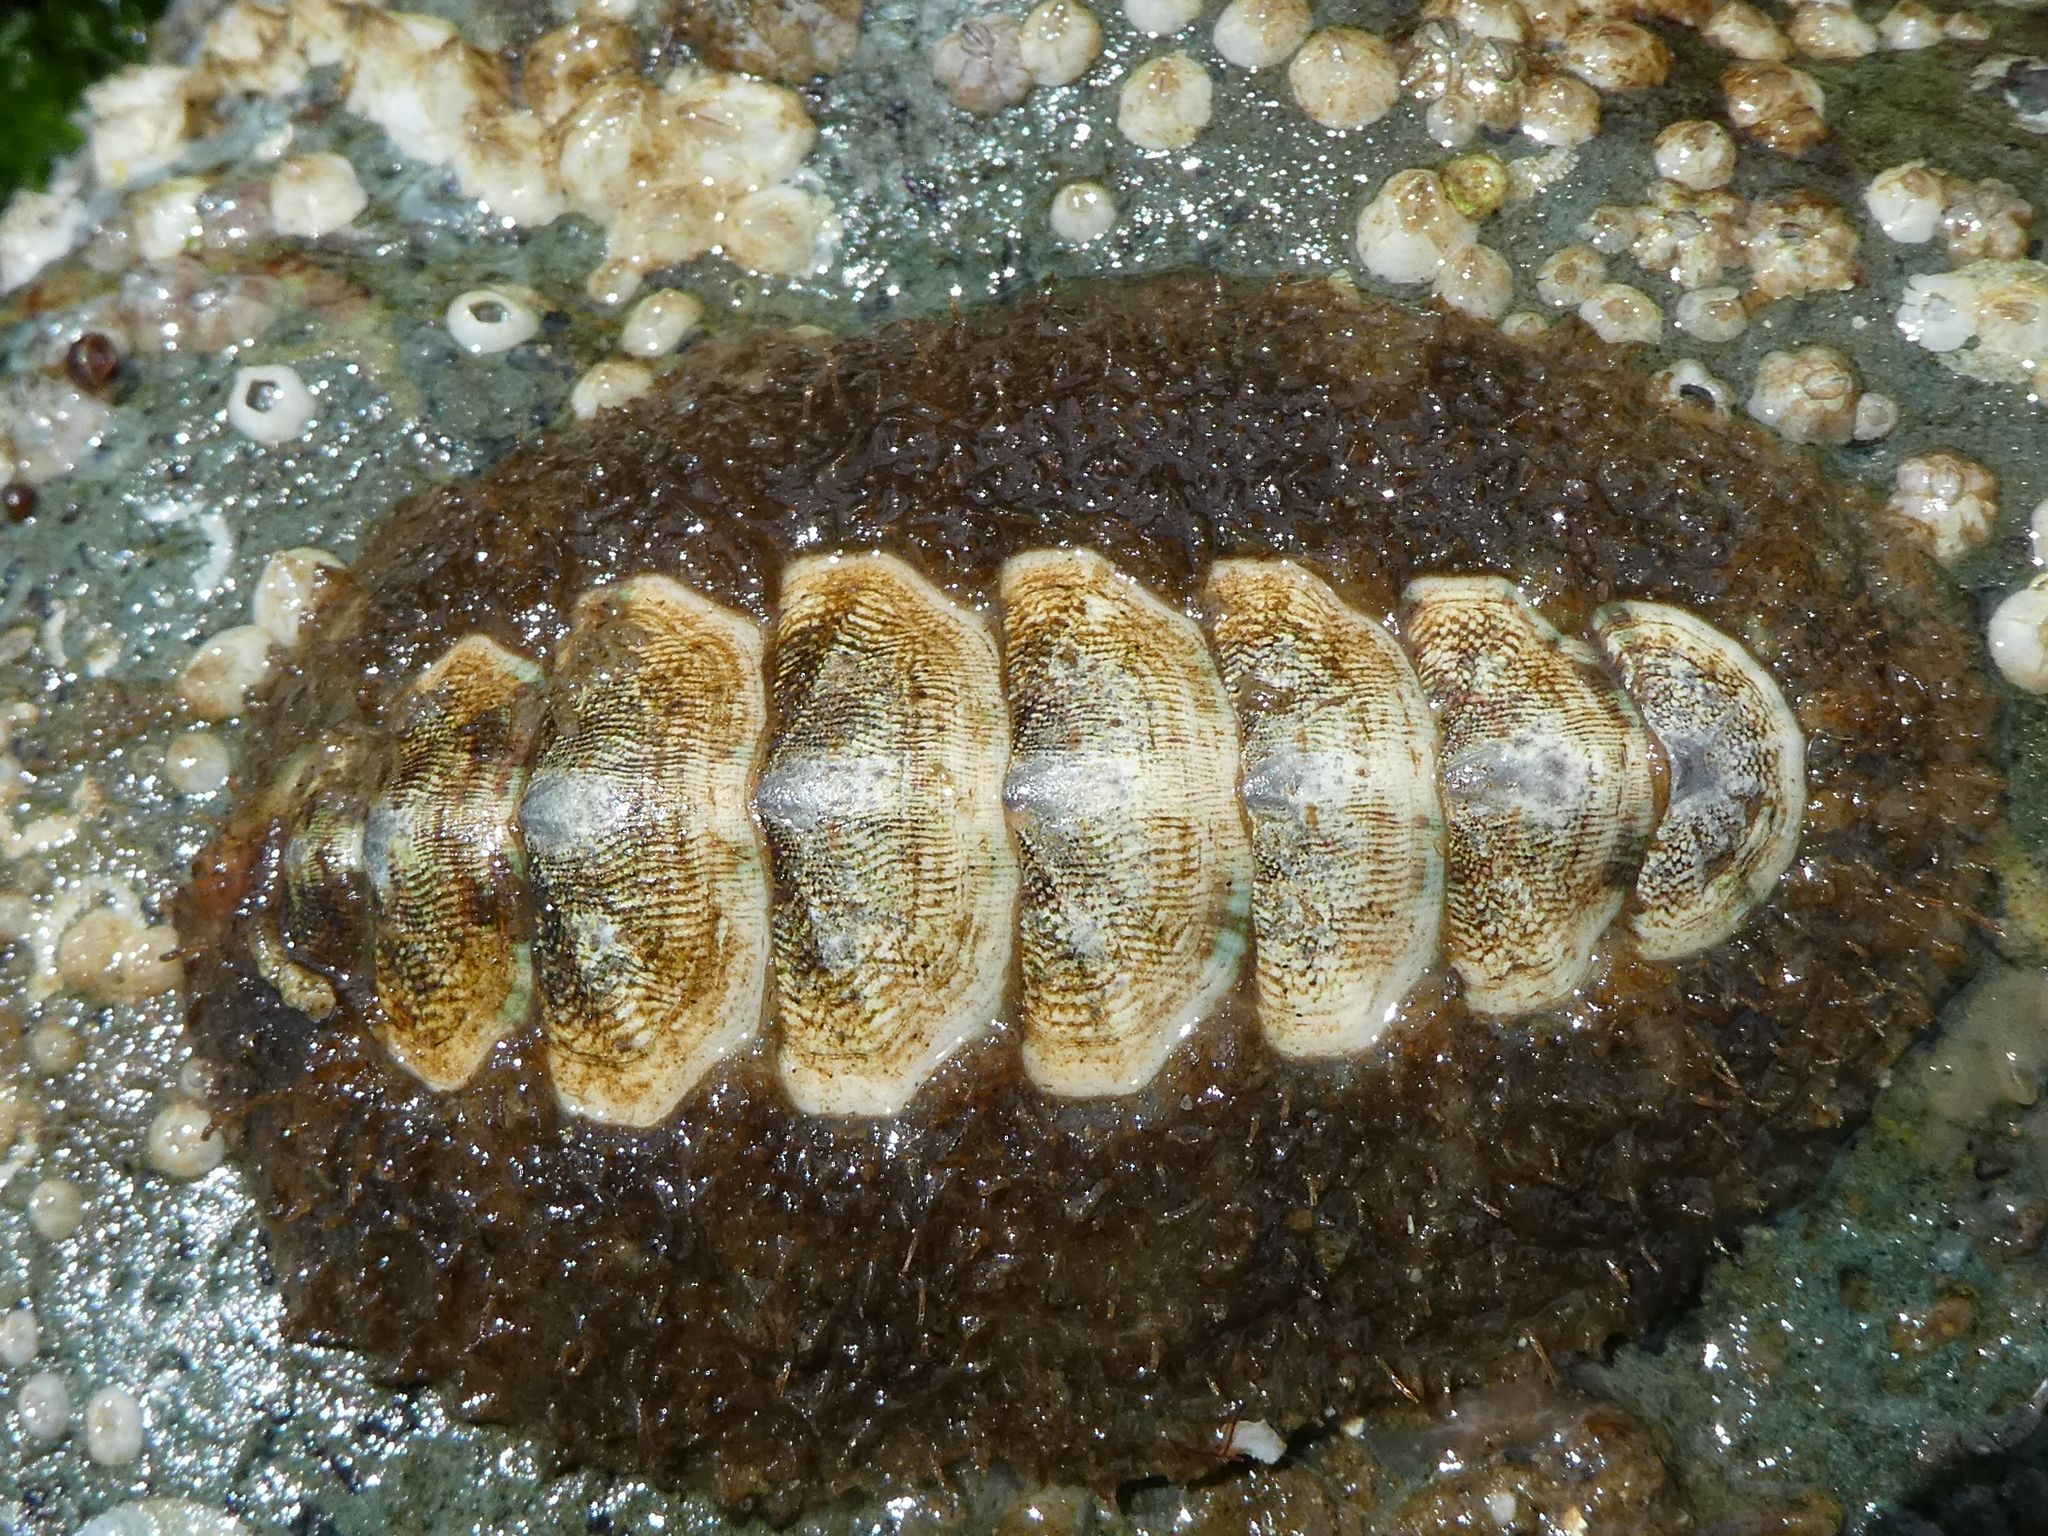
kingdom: Animalia
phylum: Mollusca
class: Polyplacophora
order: Chitonida
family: Mopaliidae
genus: Mopalia
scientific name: Mopalia ciliata
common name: Hairy chiton
